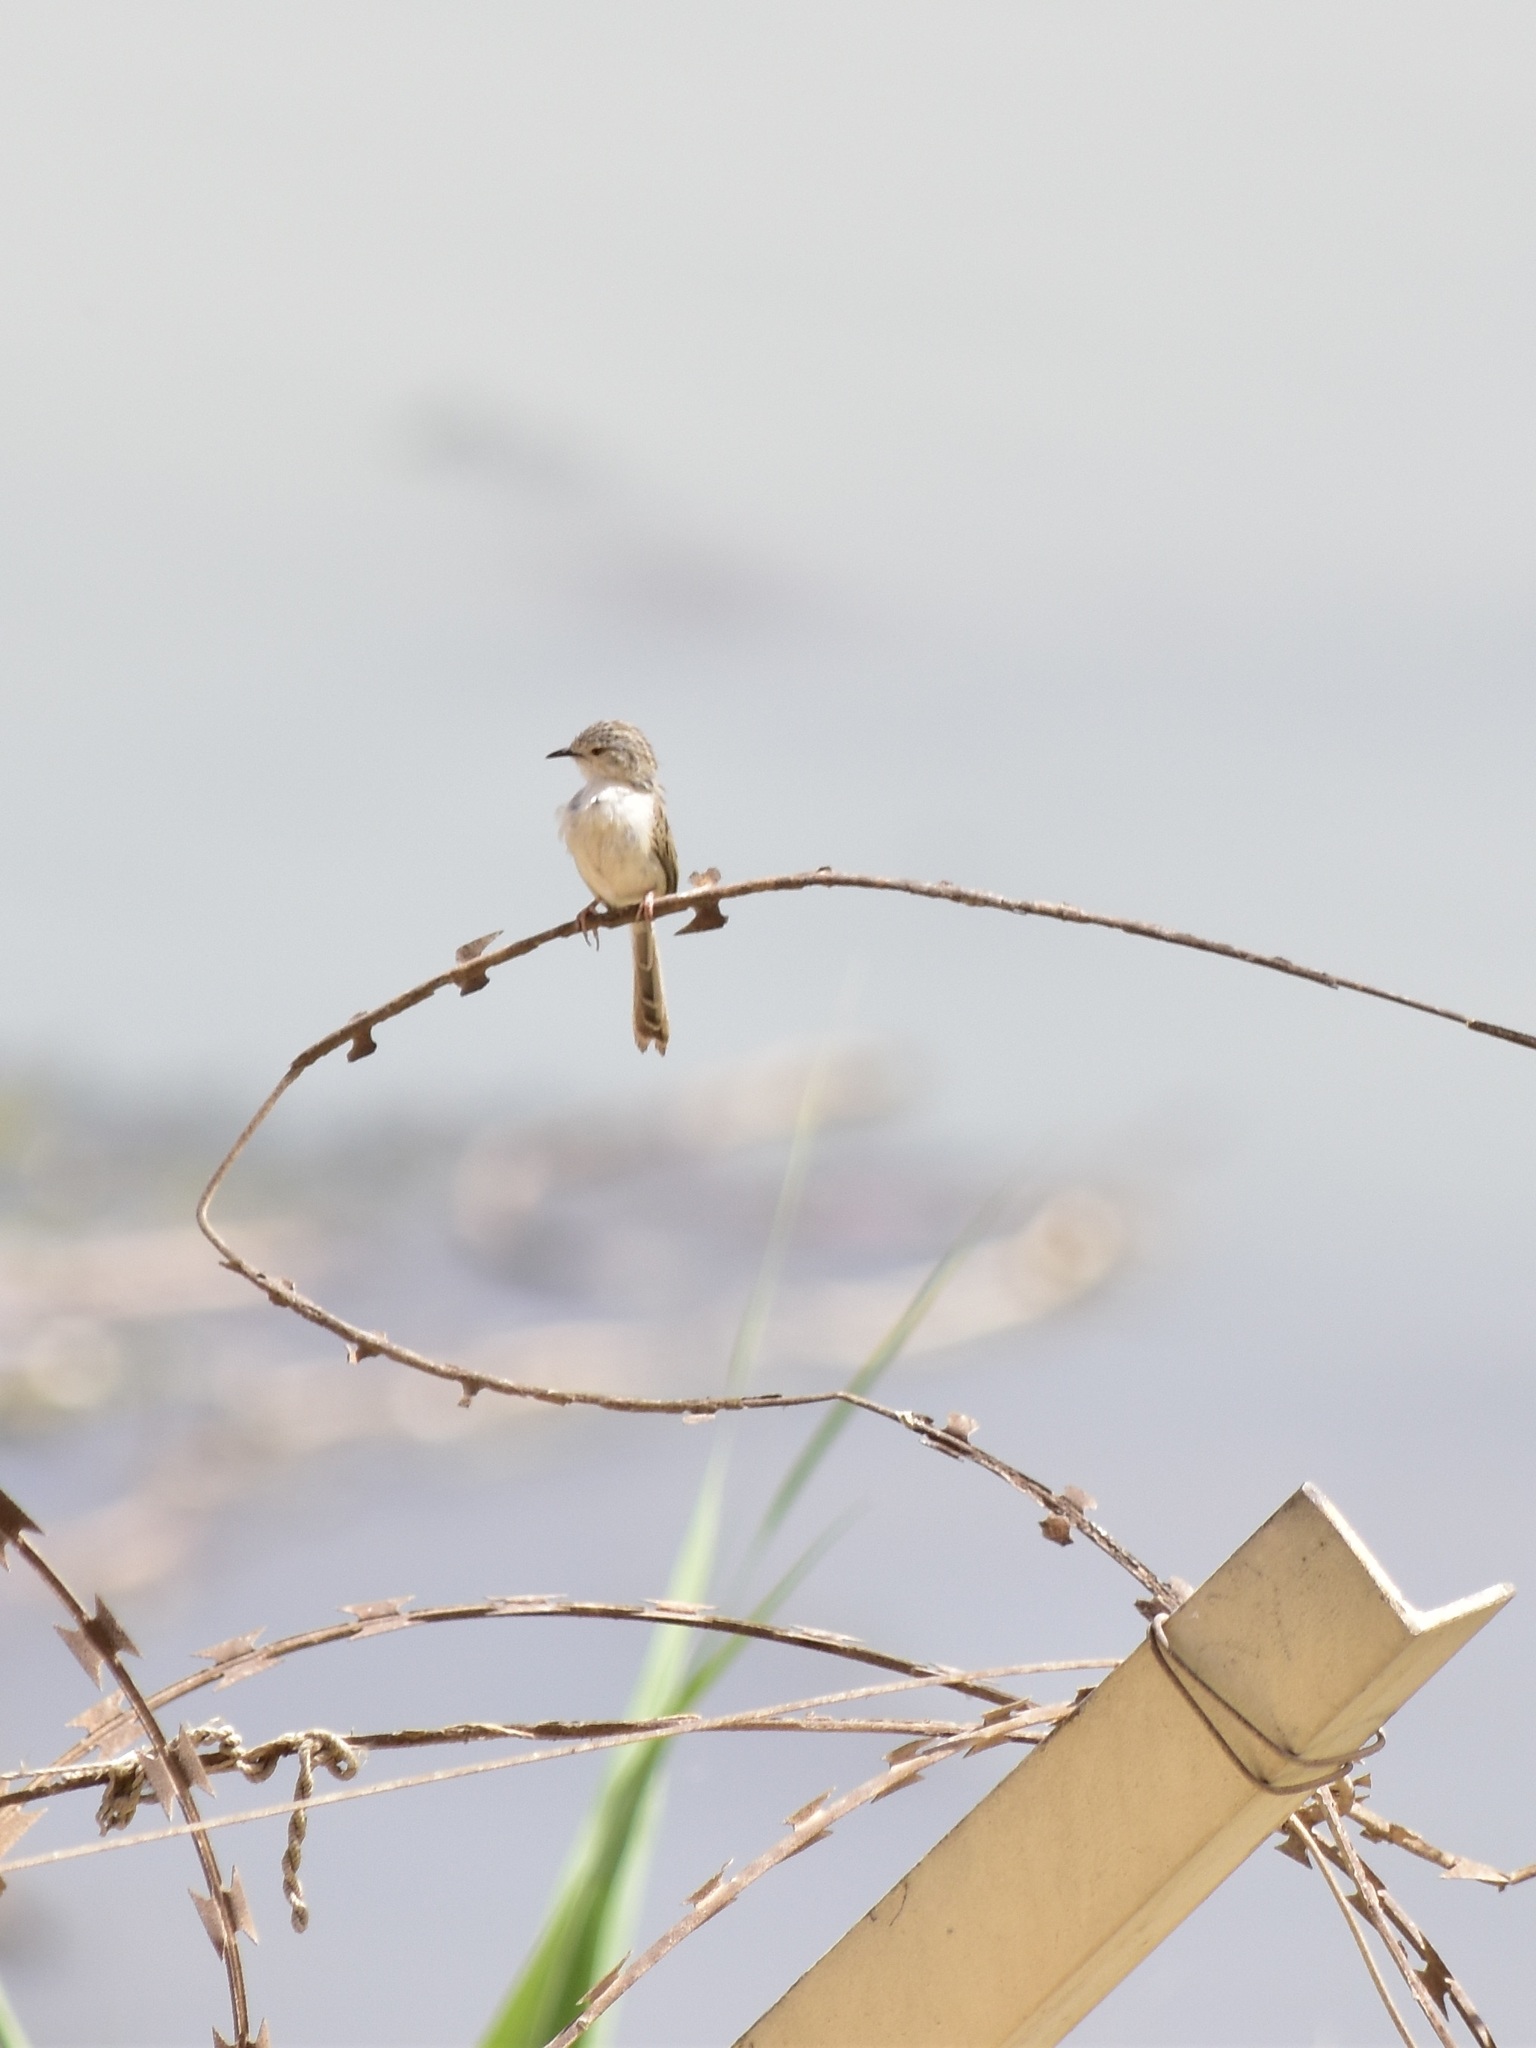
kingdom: Animalia
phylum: Chordata
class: Aves
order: Passeriformes
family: Cisticolidae
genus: Prinia
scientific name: Prinia lepida
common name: Delicate prinia
